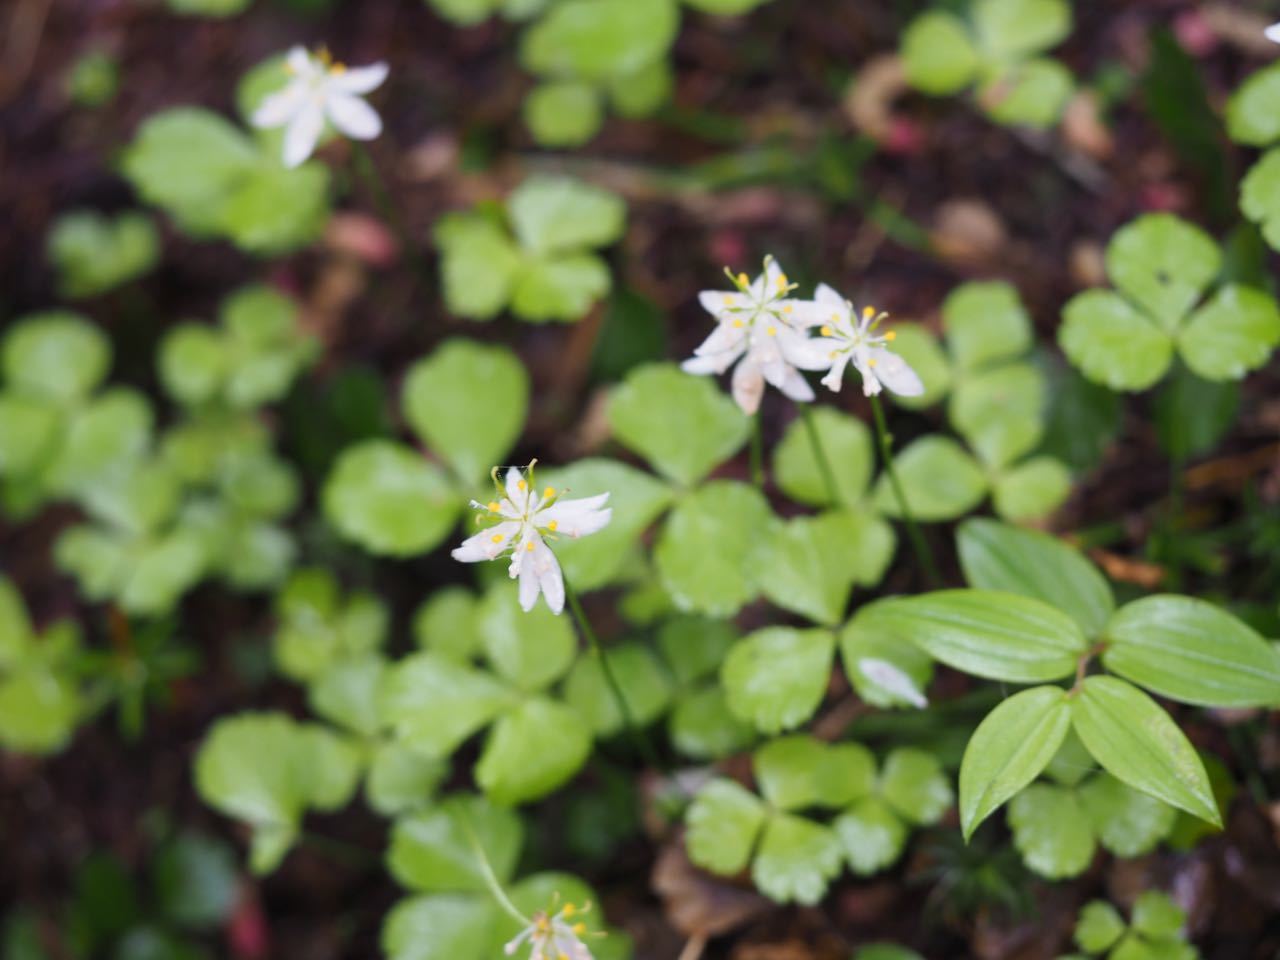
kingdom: Plantae
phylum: Tracheophyta
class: Magnoliopsida
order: Ranunculales
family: Ranunculaceae
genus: Coptis
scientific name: Coptis trifolia
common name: Canker-root
